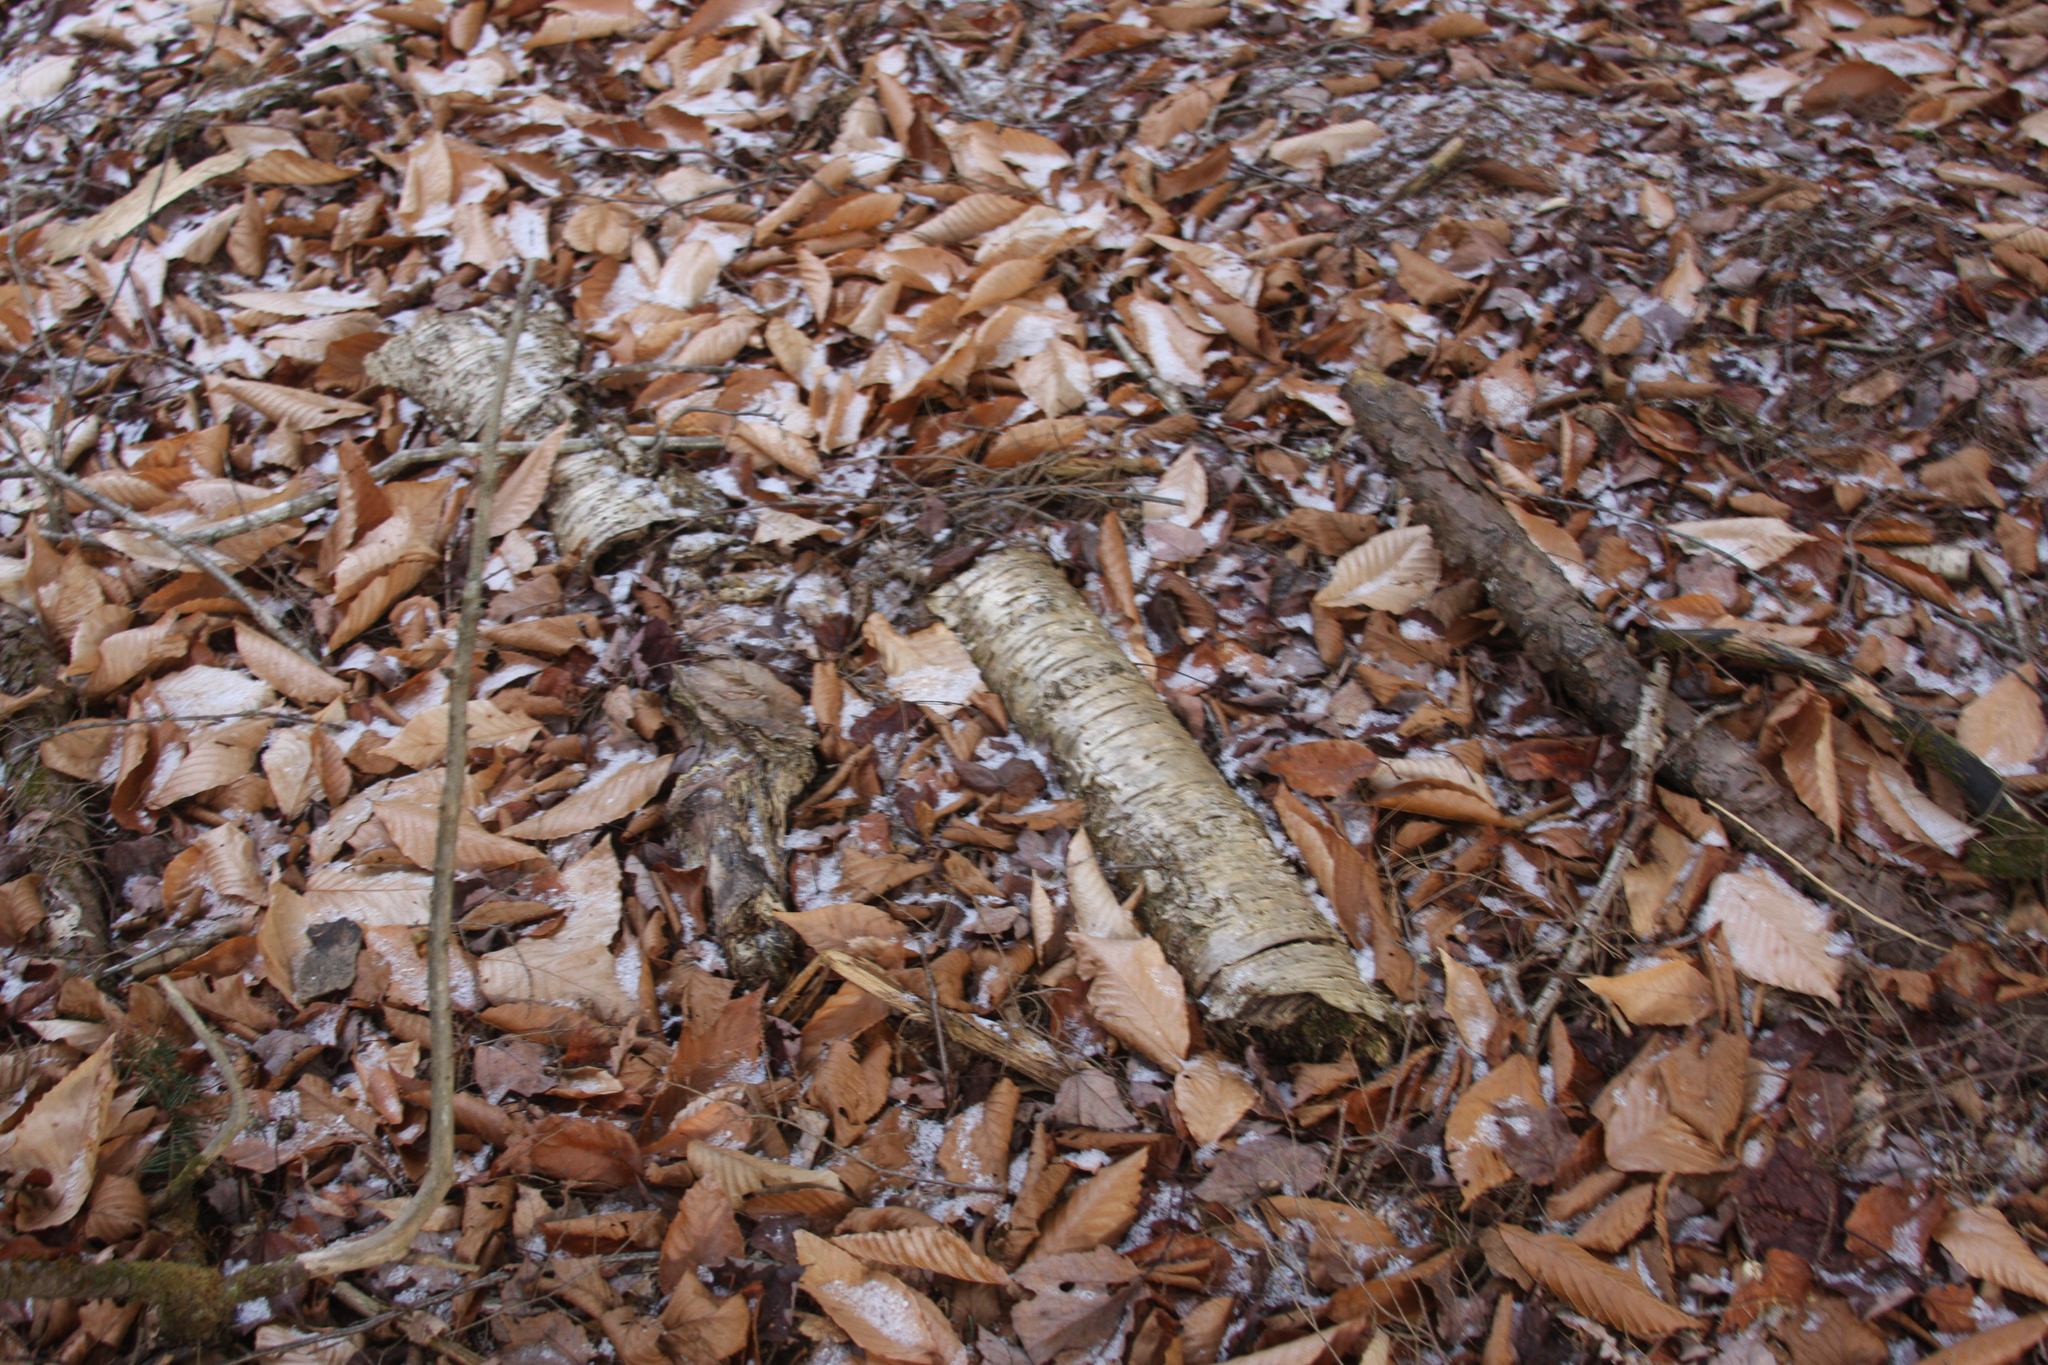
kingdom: Plantae
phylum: Tracheophyta
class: Magnoliopsida
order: Fagales
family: Betulaceae
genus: Betula
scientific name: Betula alleghaniensis
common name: Yellow birch
